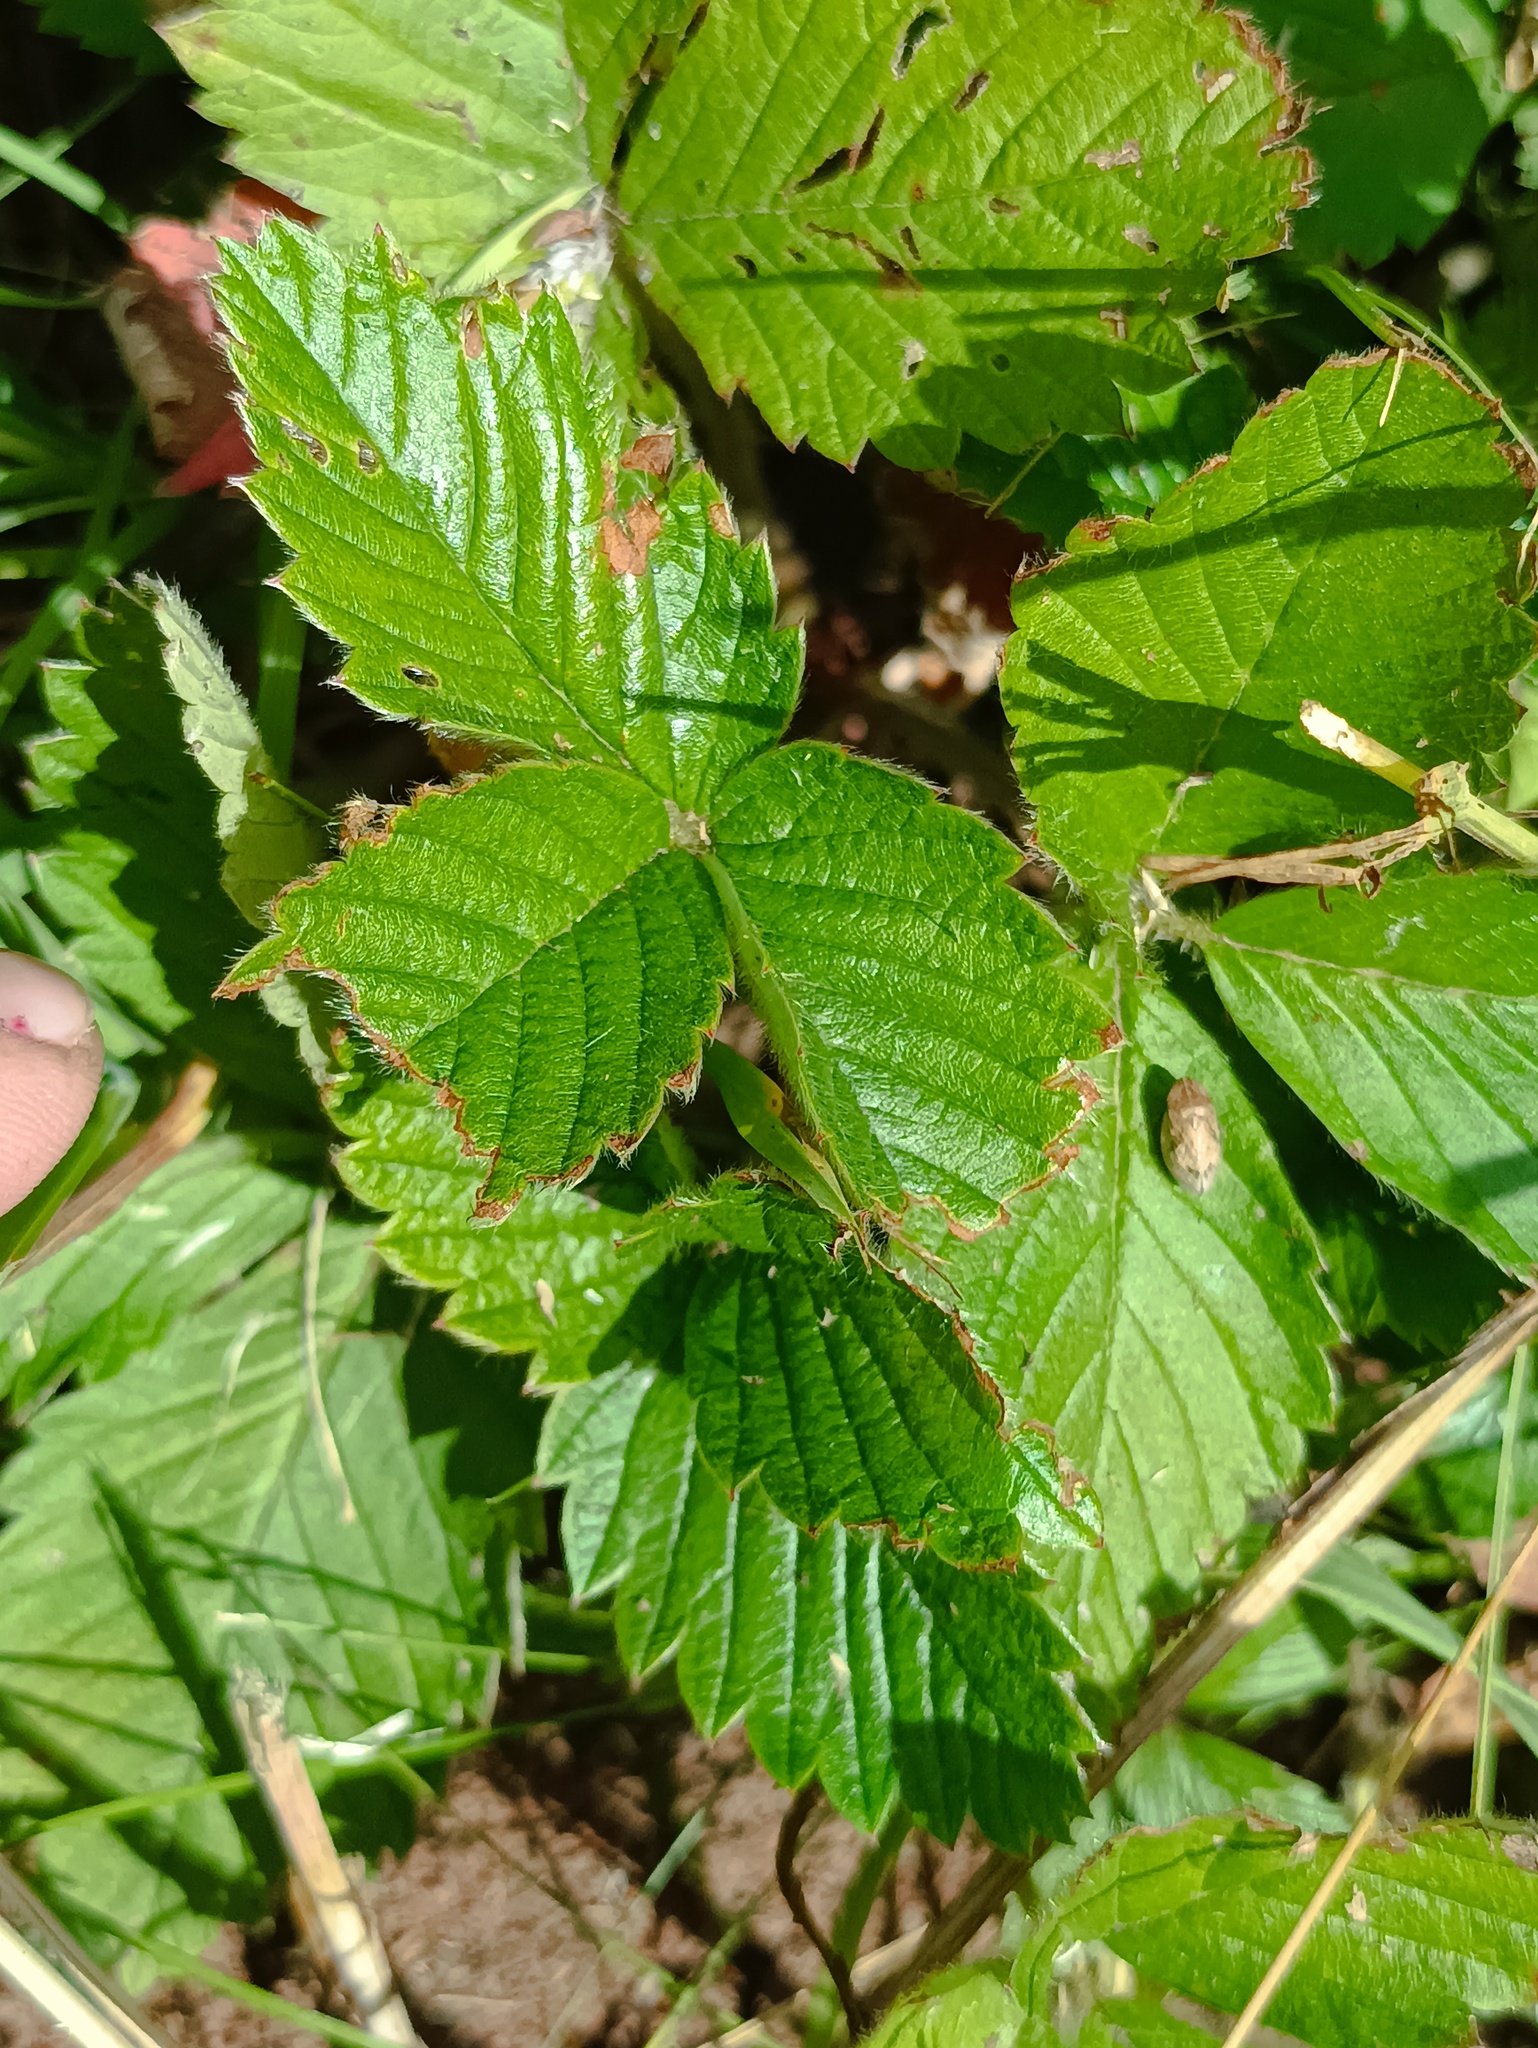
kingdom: Plantae
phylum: Tracheophyta
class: Magnoliopsida
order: Rosales
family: Rosaceae
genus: Fragaria
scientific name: Fragaria moschata
